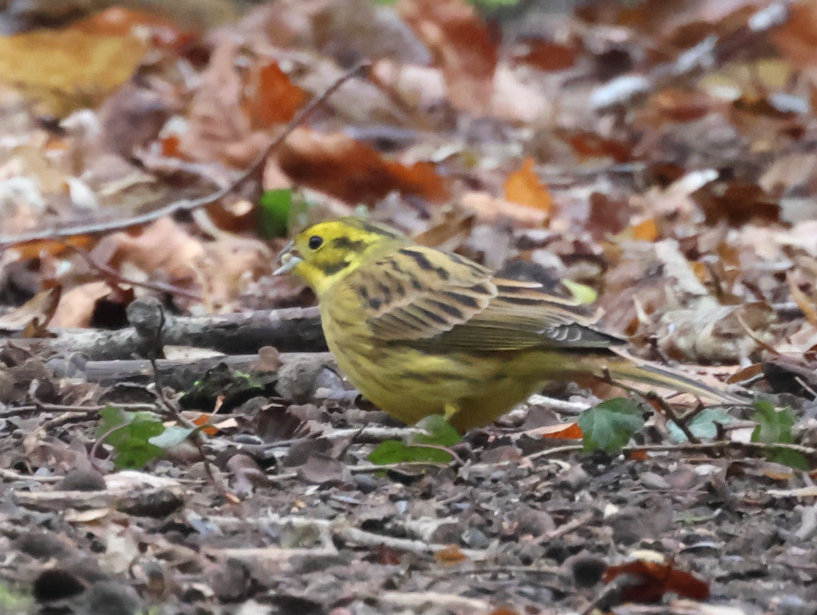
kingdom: Animalia
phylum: Chordata
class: Aves
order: Passeriformes
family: Emberizidae
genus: Emberiza
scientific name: Emberiza citrinella
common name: Yellowhammer
